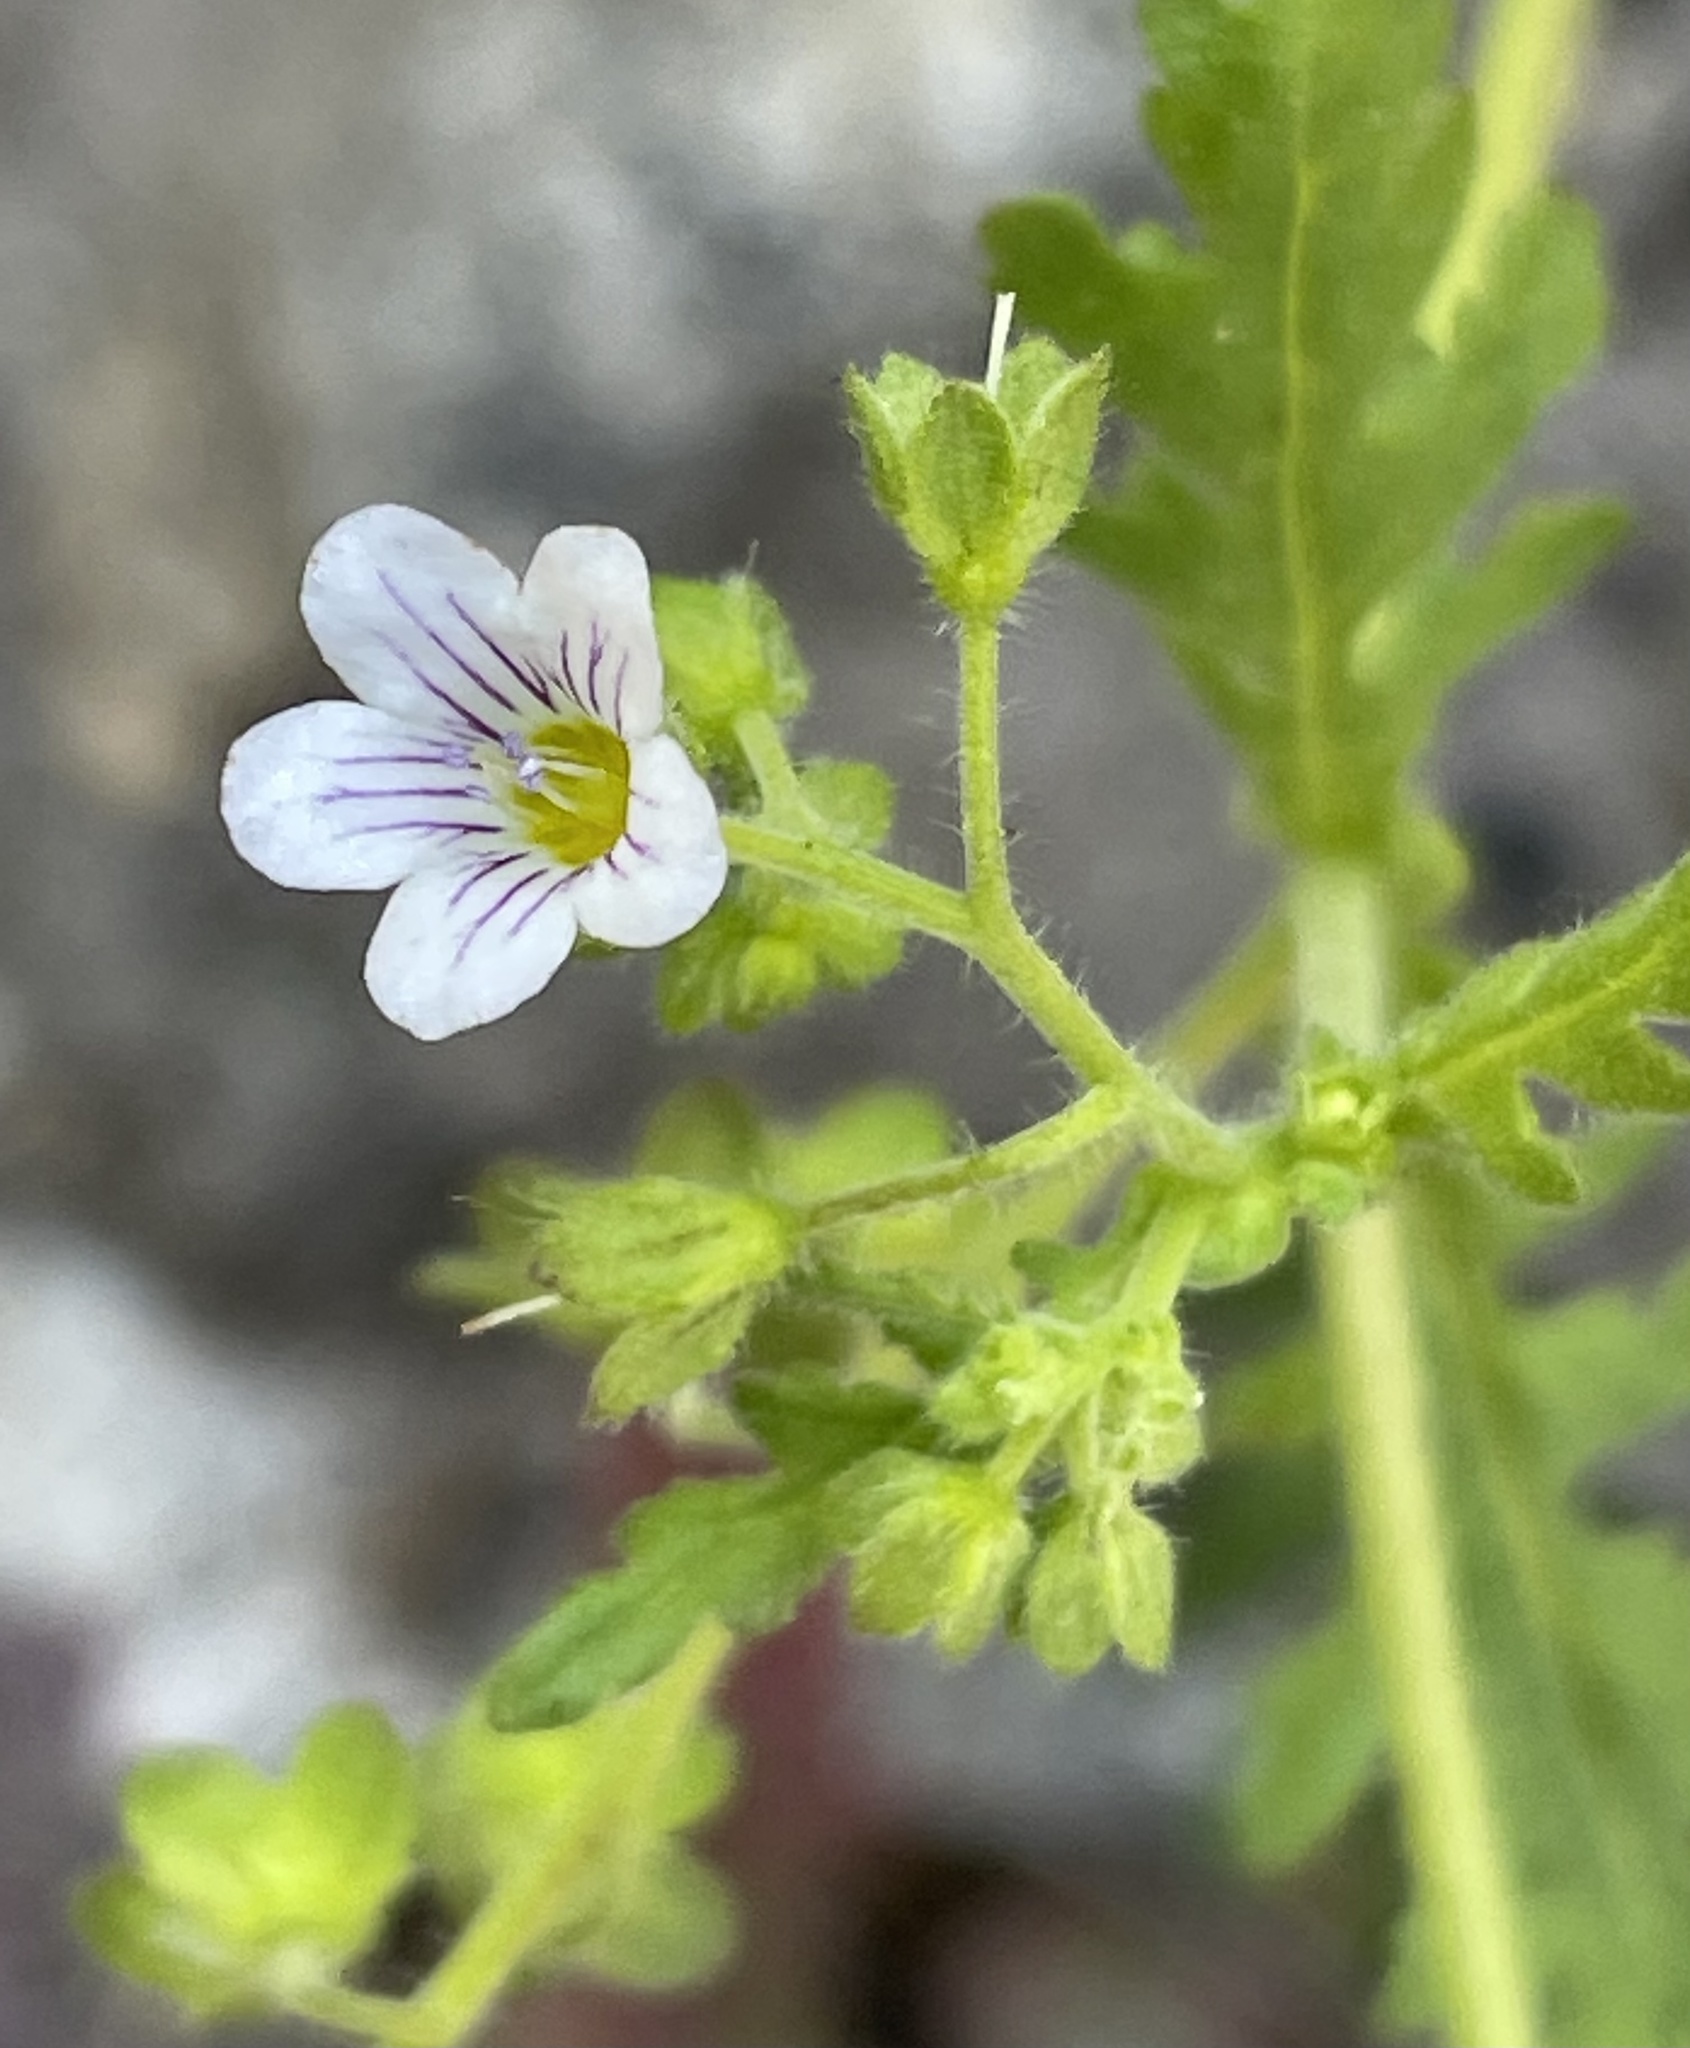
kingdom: Plantae
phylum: Tracheophyta
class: Magnoliopsida
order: Boraginales
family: Hydrophyllaceae
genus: Eucrypta
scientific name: Eucrypta chrysanthemifolia
